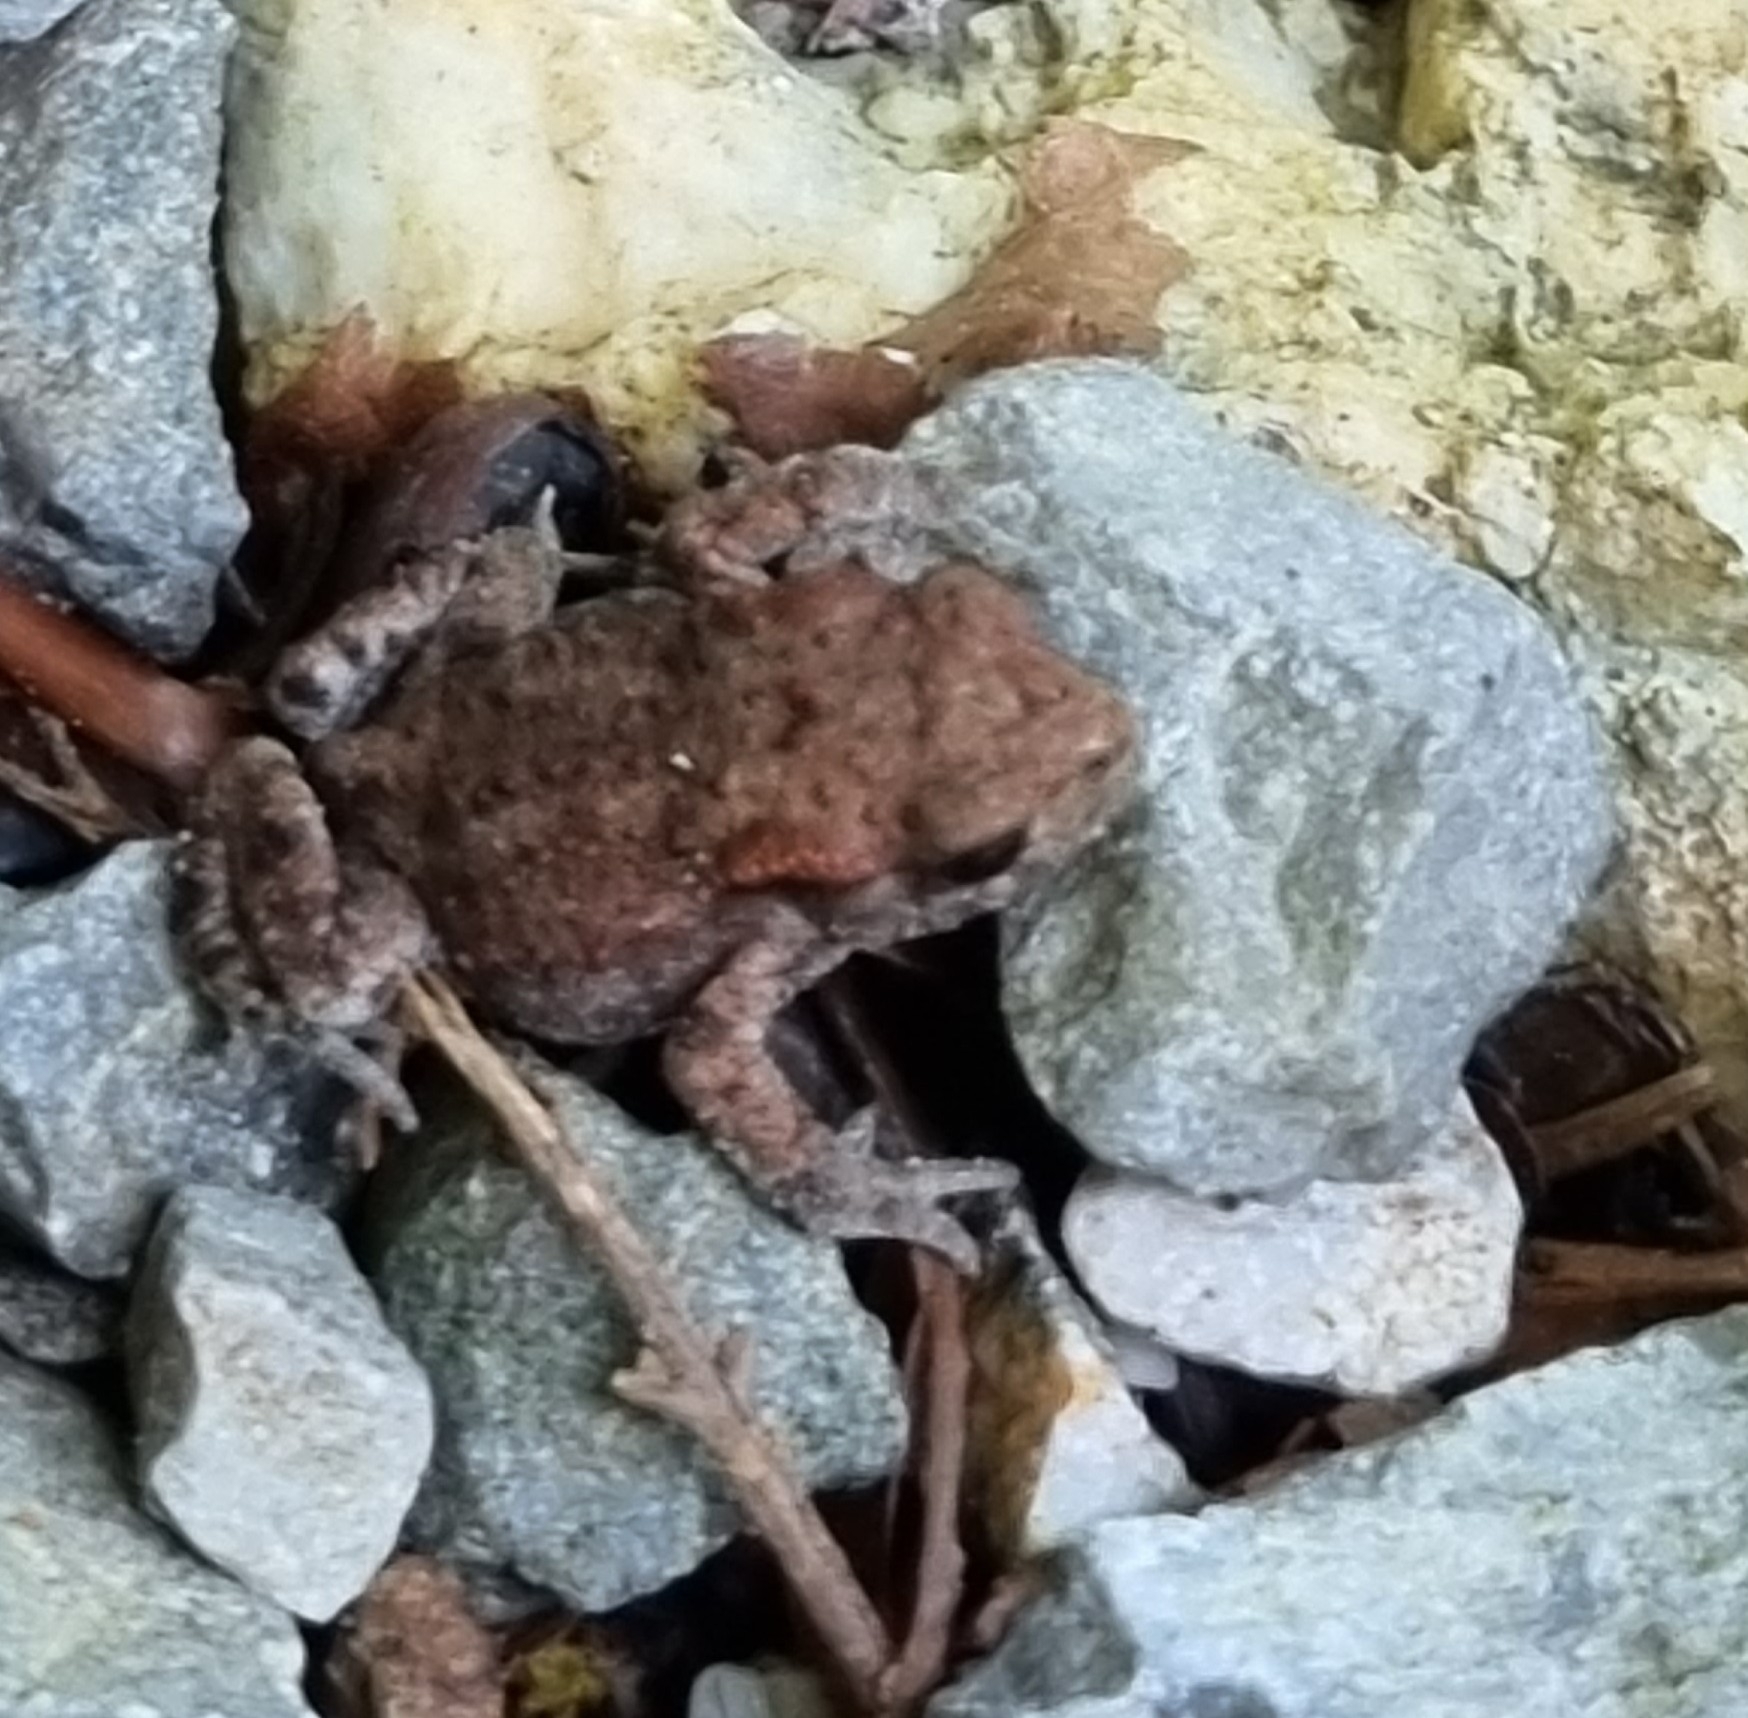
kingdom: Animalia
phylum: Chordata
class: Amphibia
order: Anura
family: Bufonidae
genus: Bufo
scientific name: Bufo bufo
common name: Common toad
